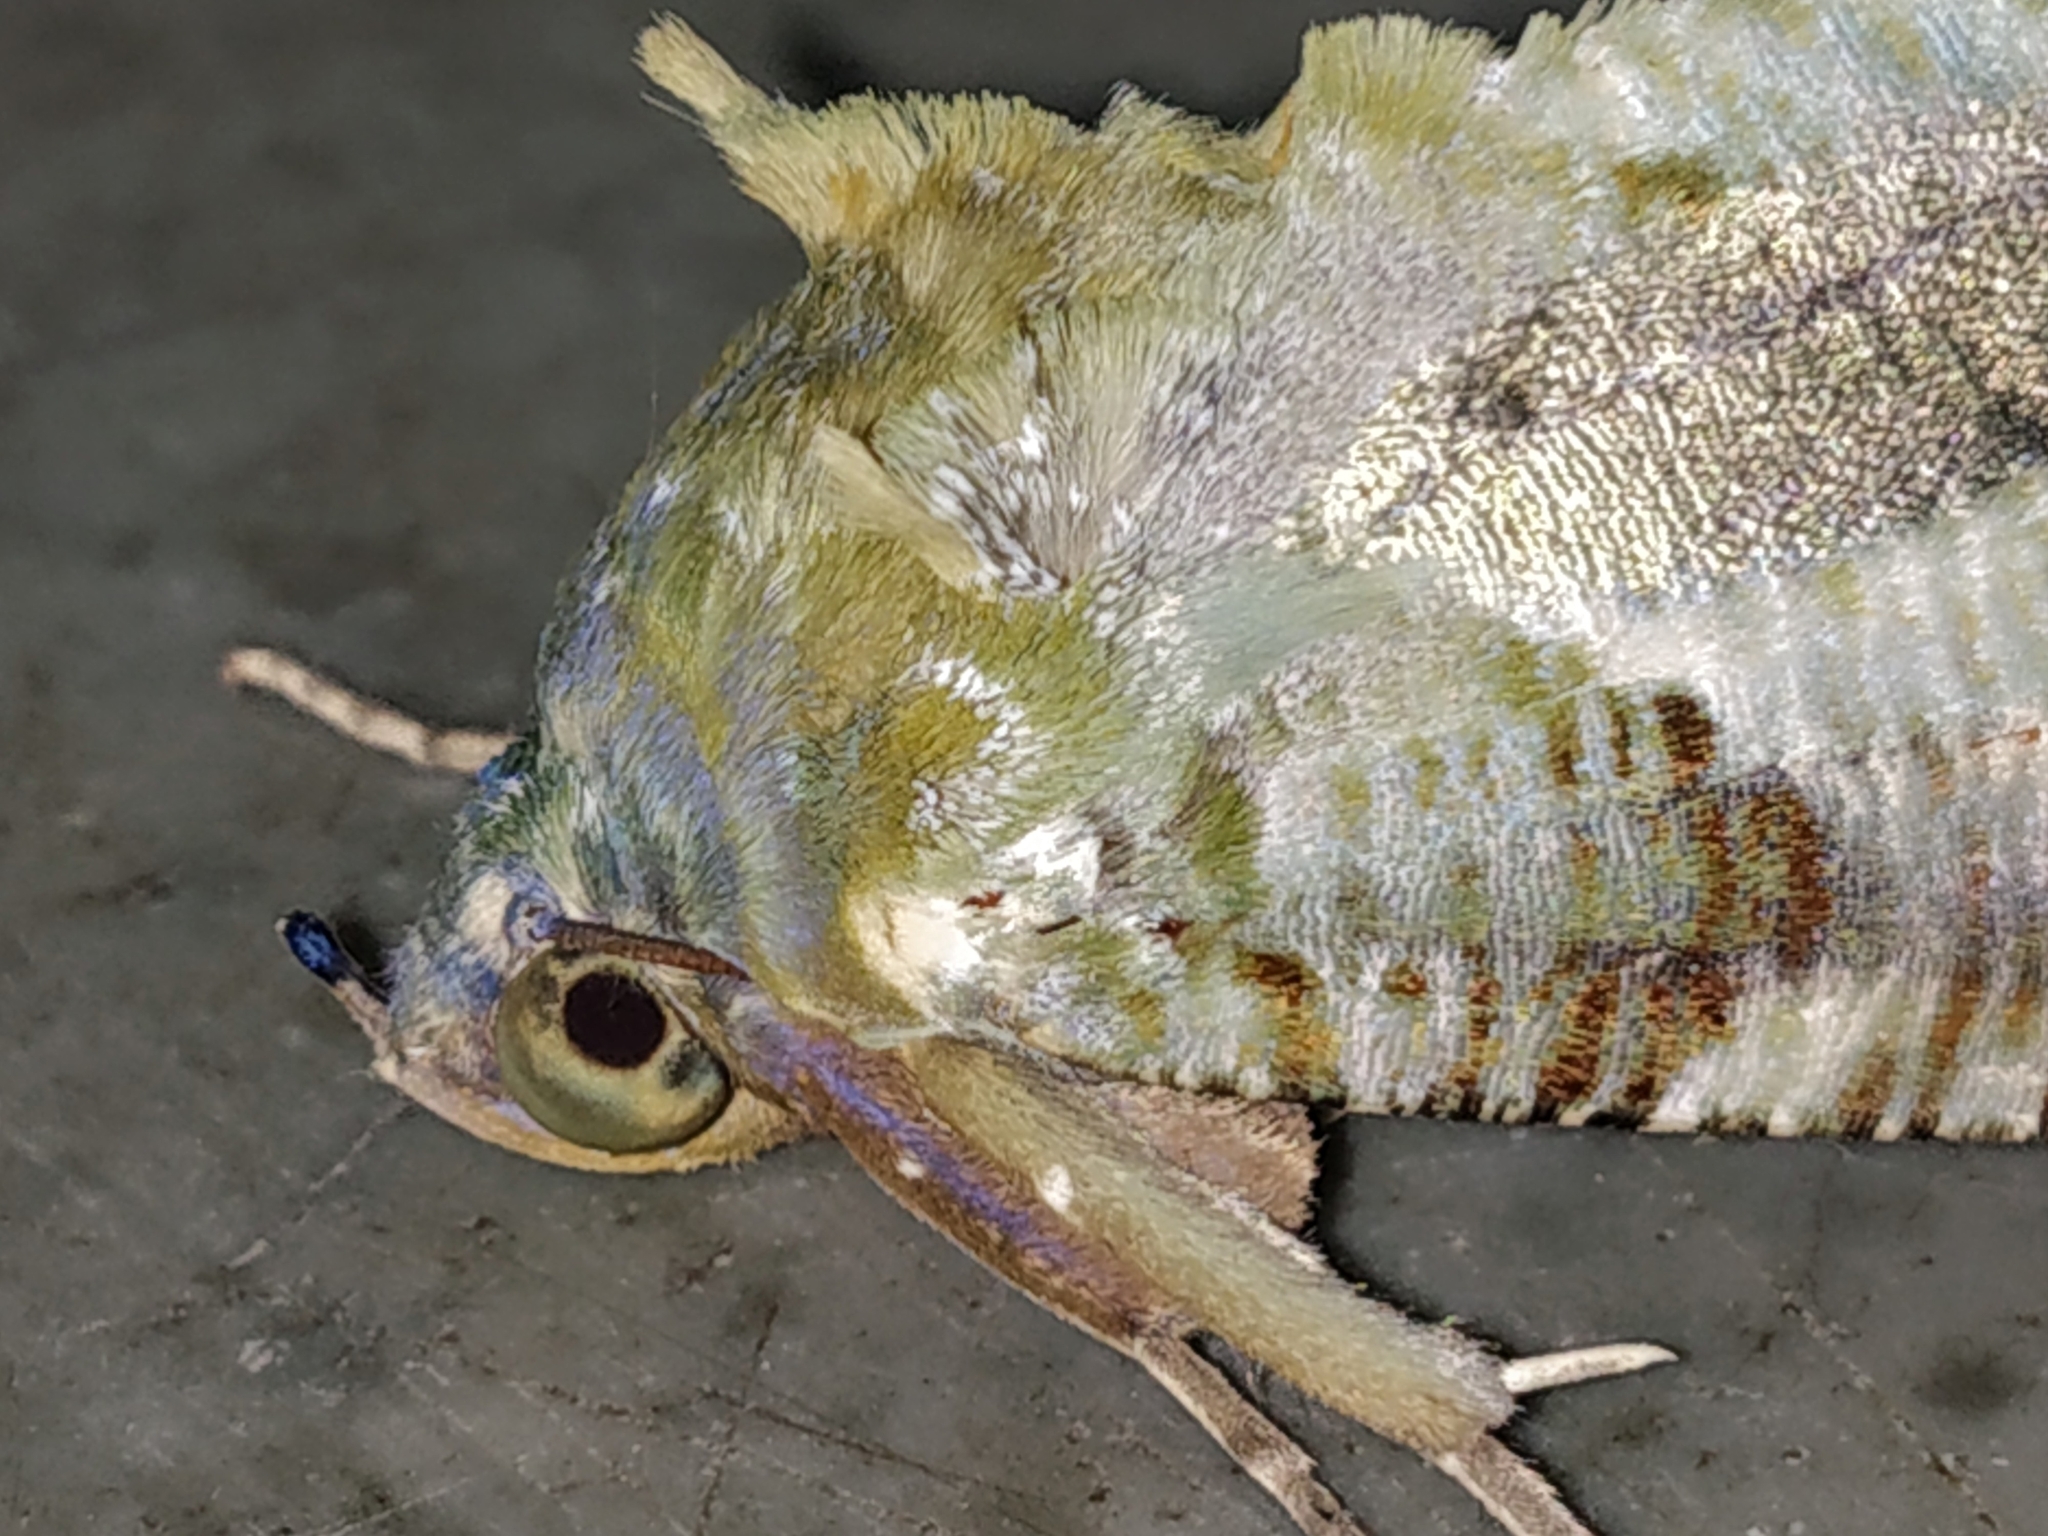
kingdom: Animalia
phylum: Arthropoda
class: Insecta
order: Lepidoptera
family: Erebidae
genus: Eudocima
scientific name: Eudocima materna
